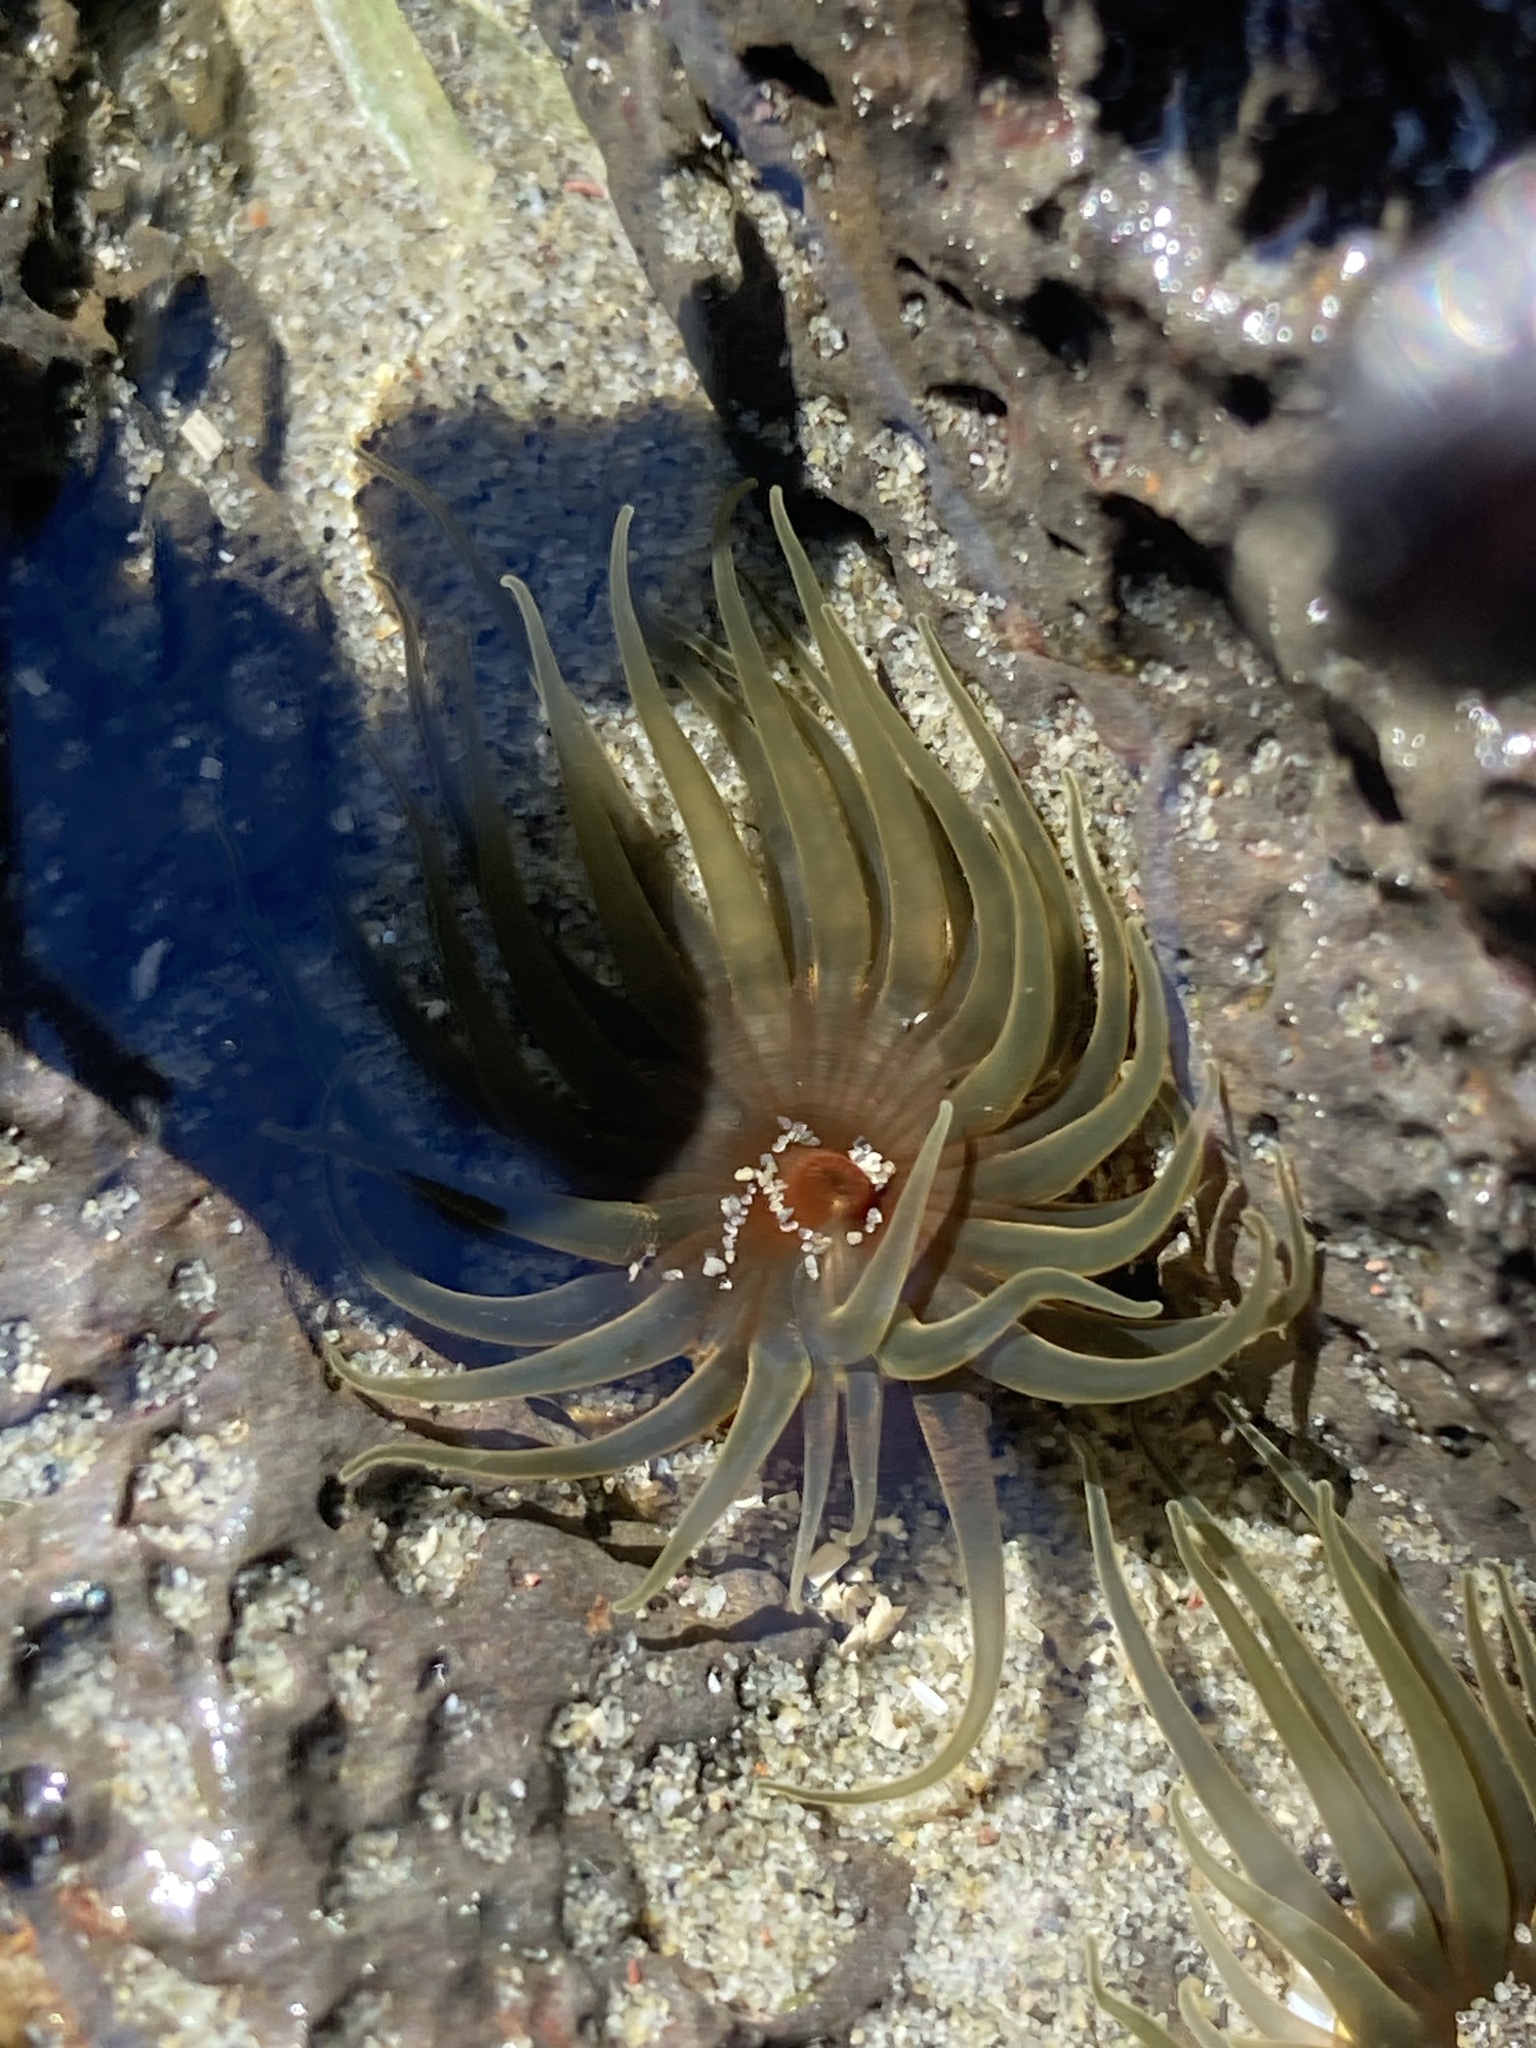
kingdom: Animalia
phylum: Cnidaria
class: Anthozoa
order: Actiniaria
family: Actiniidae
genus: Isactinia
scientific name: Isactinia olivacea
